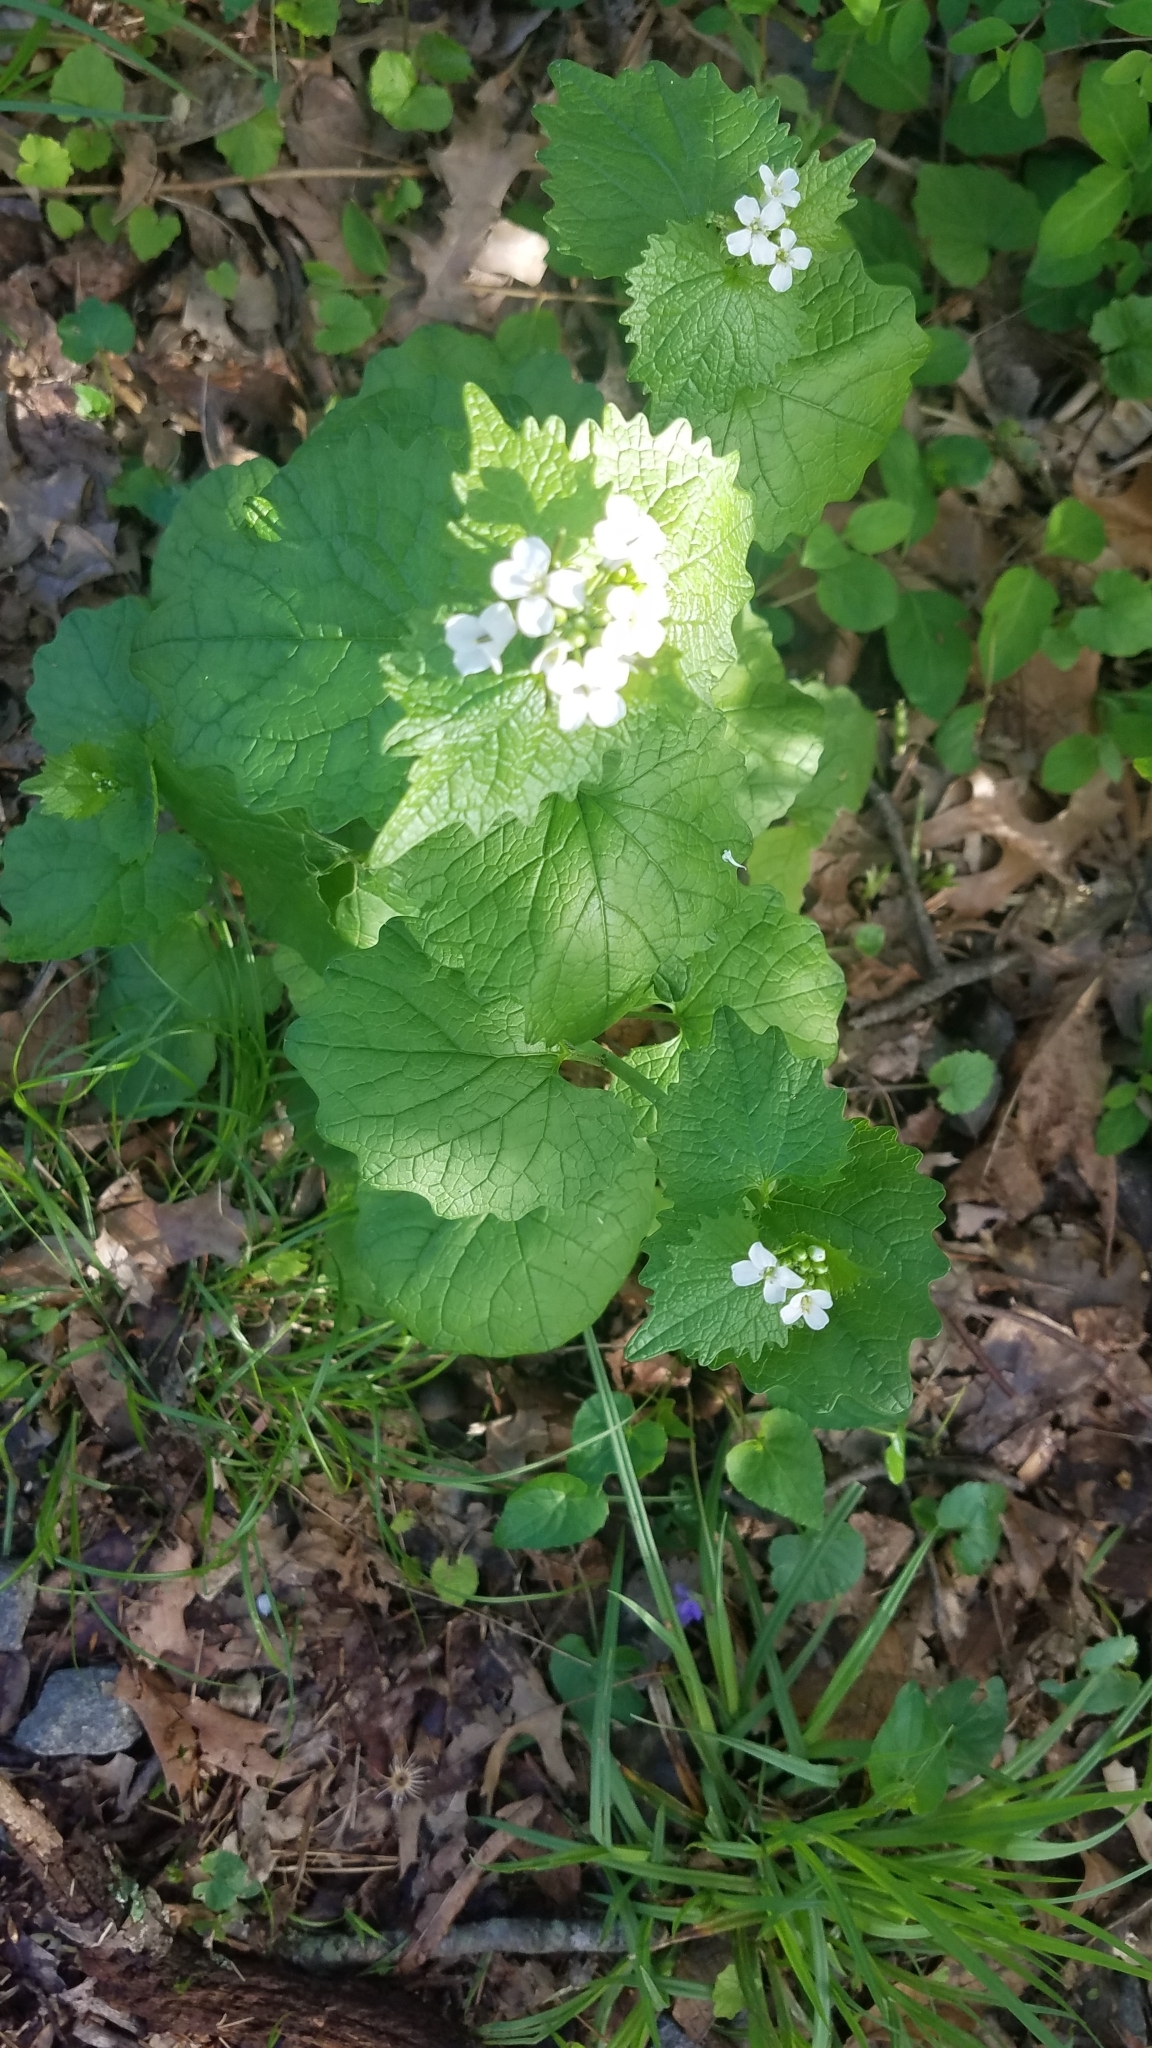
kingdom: Plantae
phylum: Tracheophyta
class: Magnoliopsida
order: Brassicales
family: Brassicaceae
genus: Alliaria
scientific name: Alliaria petiolata
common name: Garlic mustard
